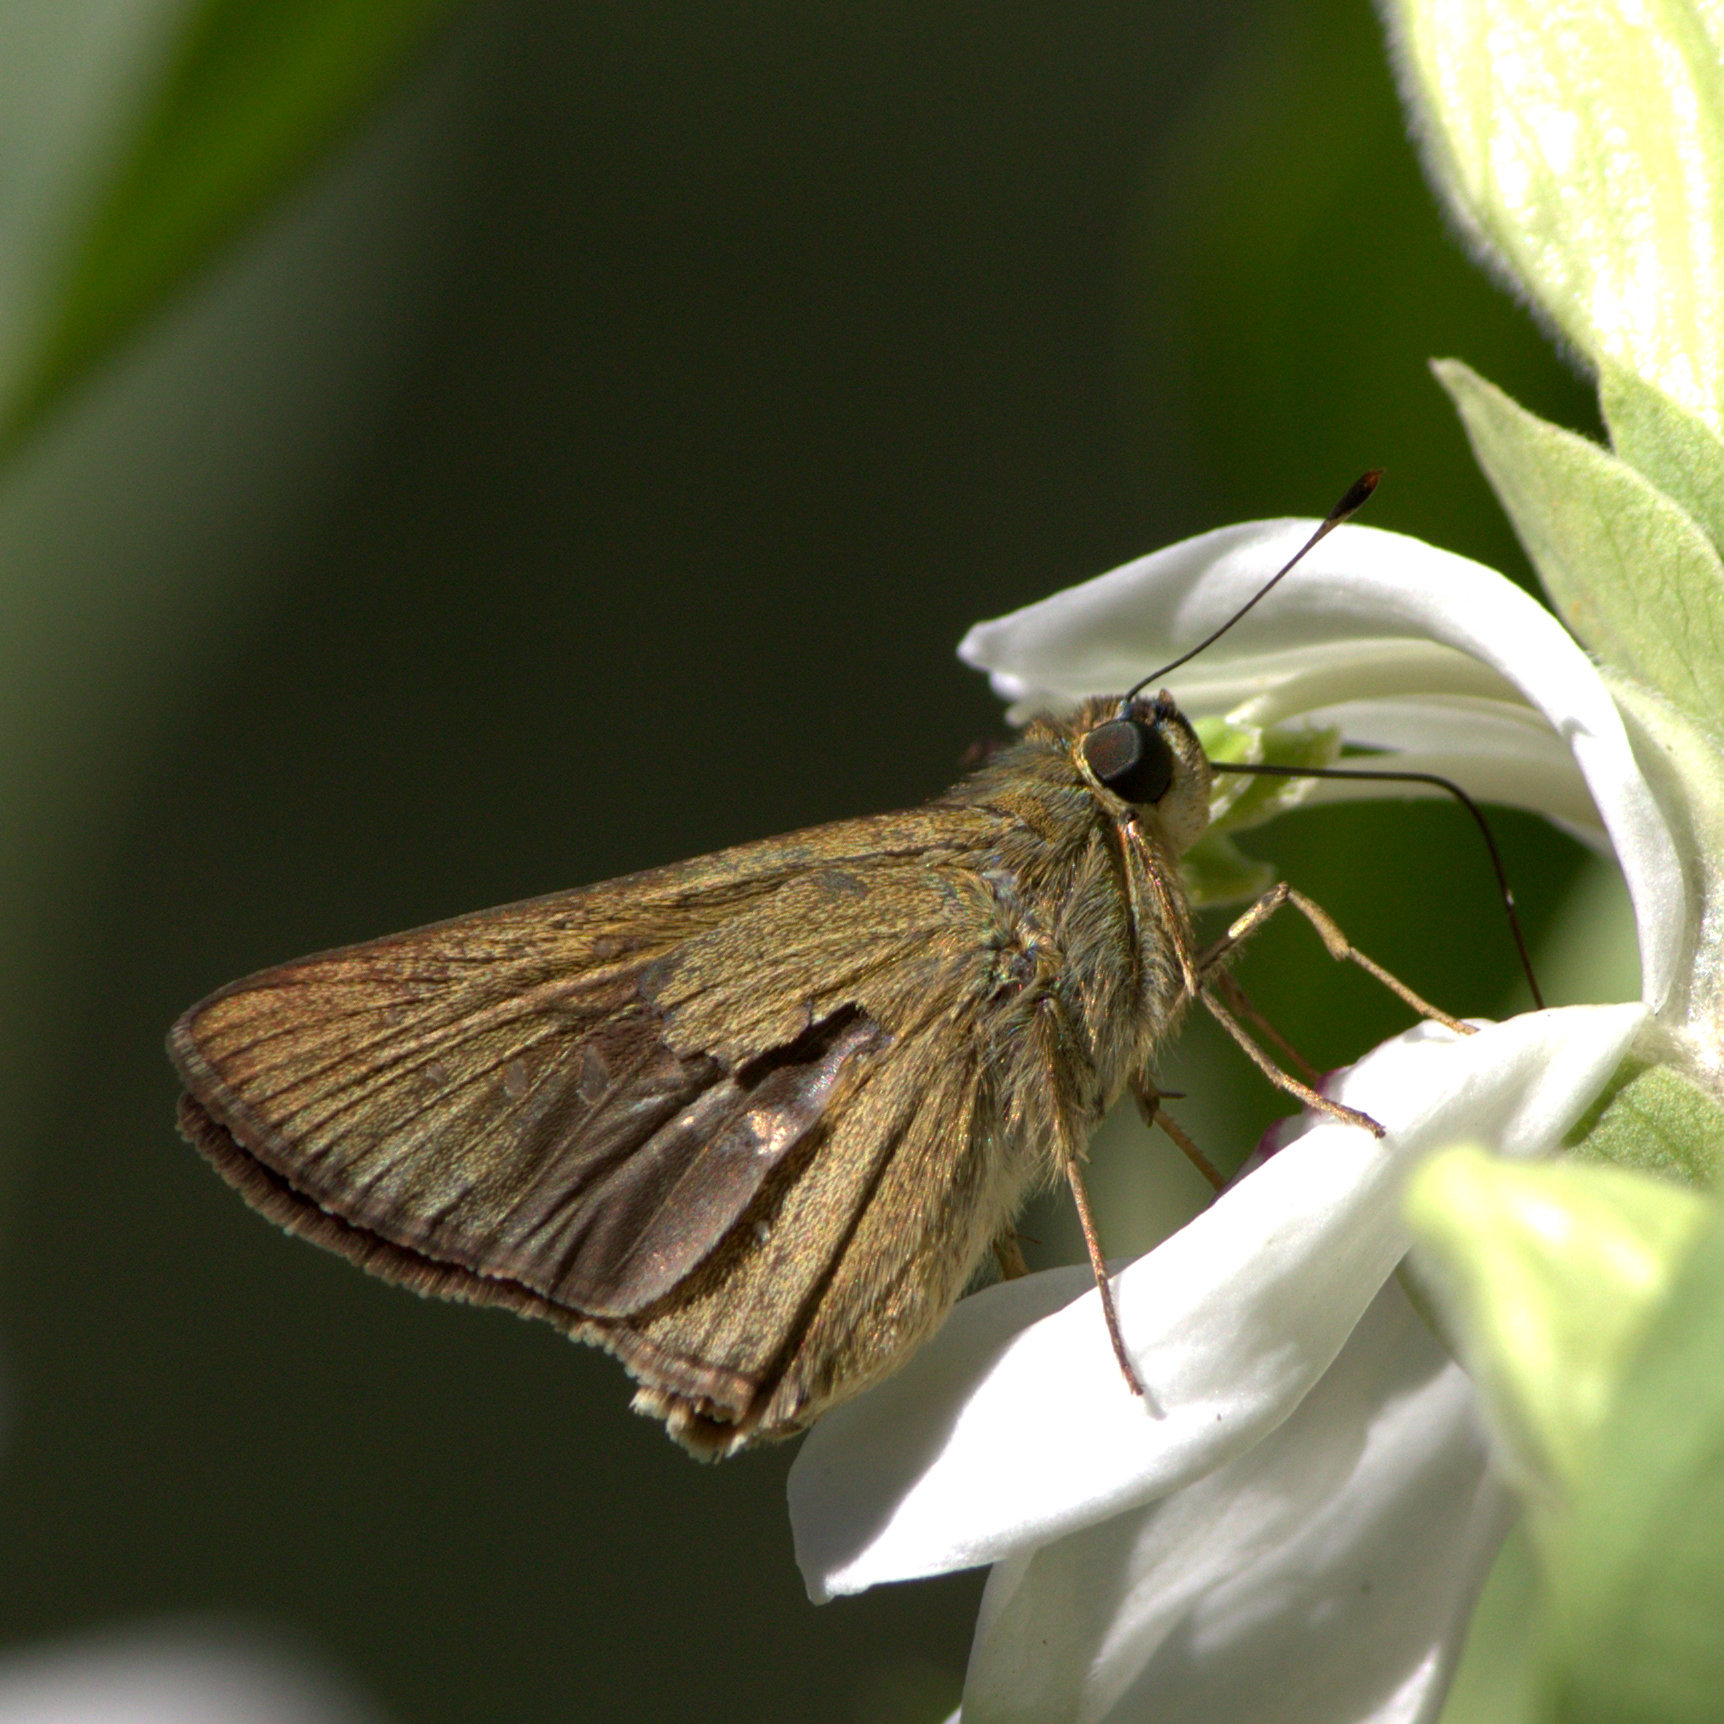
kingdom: Animalia
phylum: Arthropoda
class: Insecta
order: Lepidoptera
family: Hesperiidae
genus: Pelopidas
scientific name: Pelopidas mathias
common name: Black-branded swift
